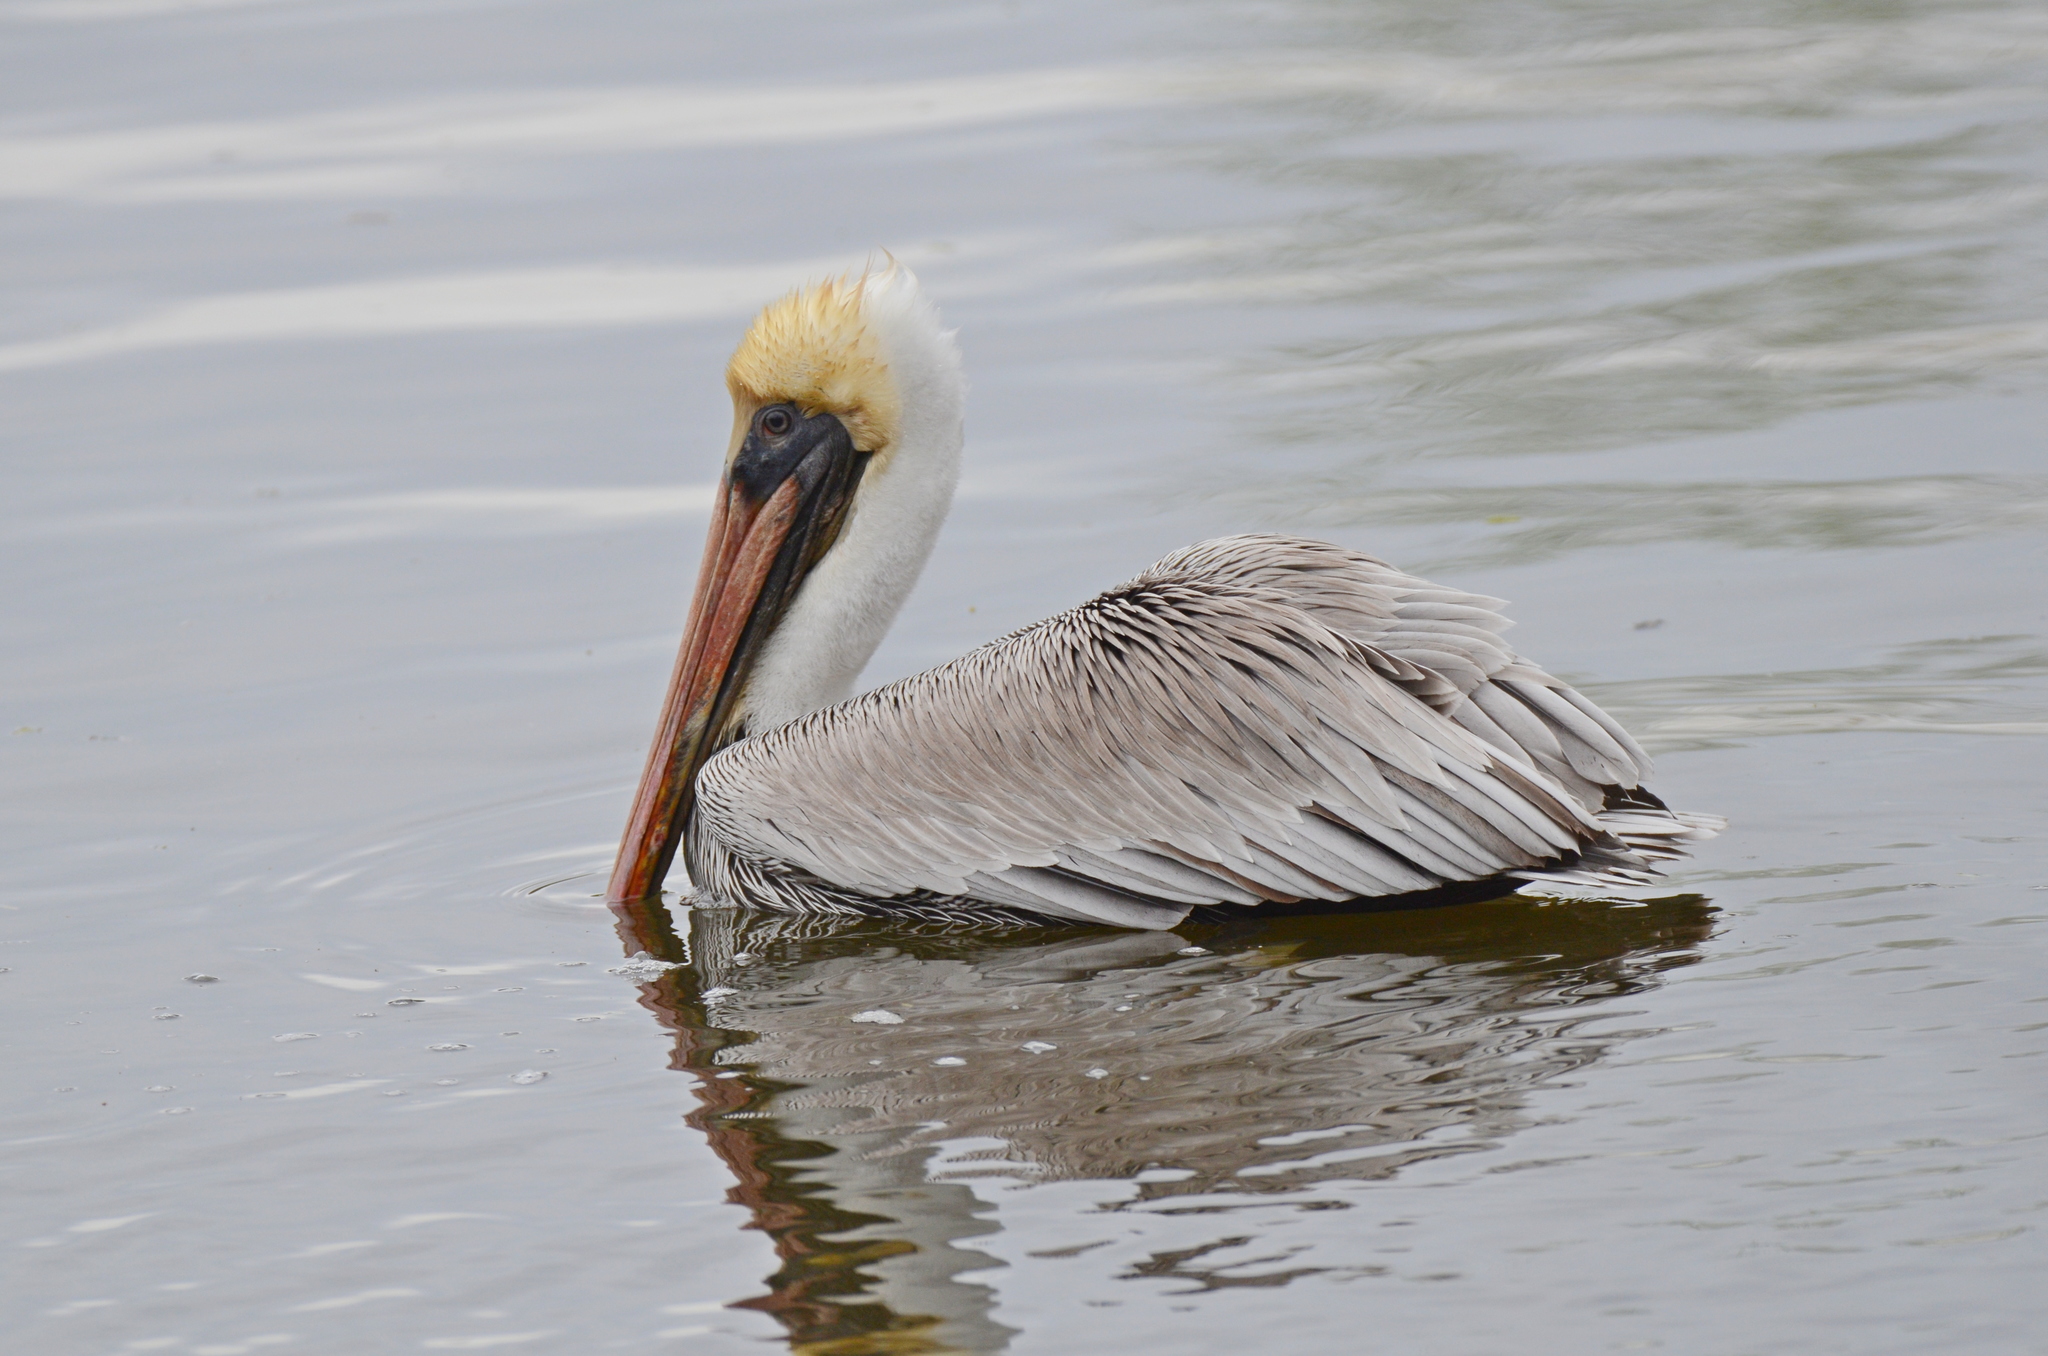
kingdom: Animalia
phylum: Chordata
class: Aves
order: Pelecaniformes
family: Pelecanidae
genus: Pelecanus
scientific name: Pelecanus occidentalis
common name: Brown pelican
